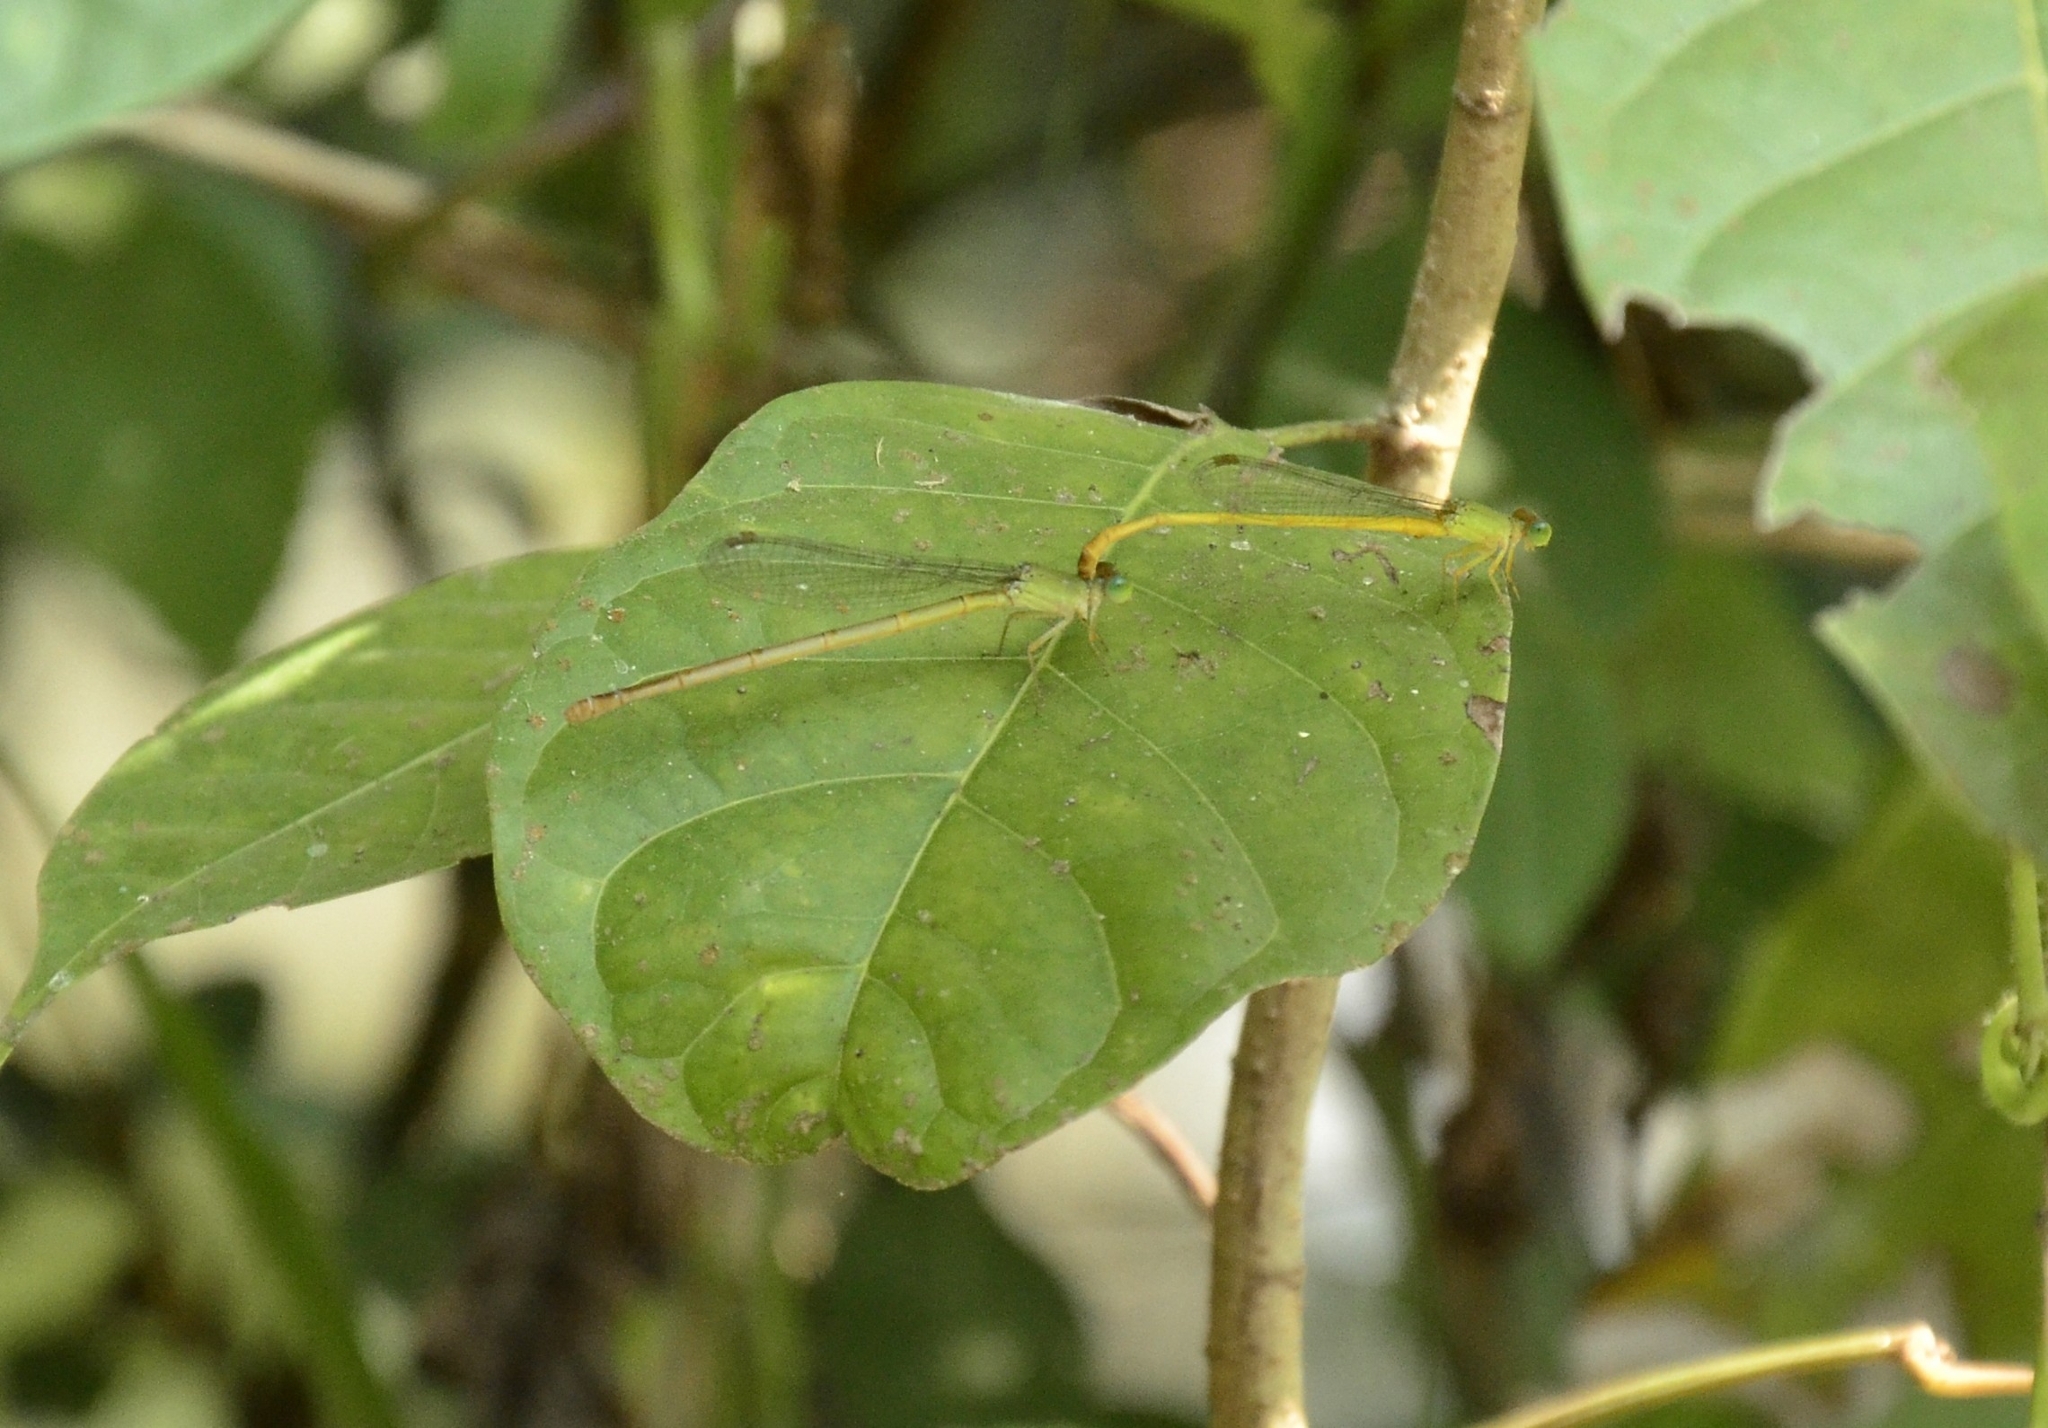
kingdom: Animalia
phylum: Arthropoda
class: Insecta
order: Odonata
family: Coenagrionidae
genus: Ceriagrion
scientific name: Ceriagrion coromandelianum
